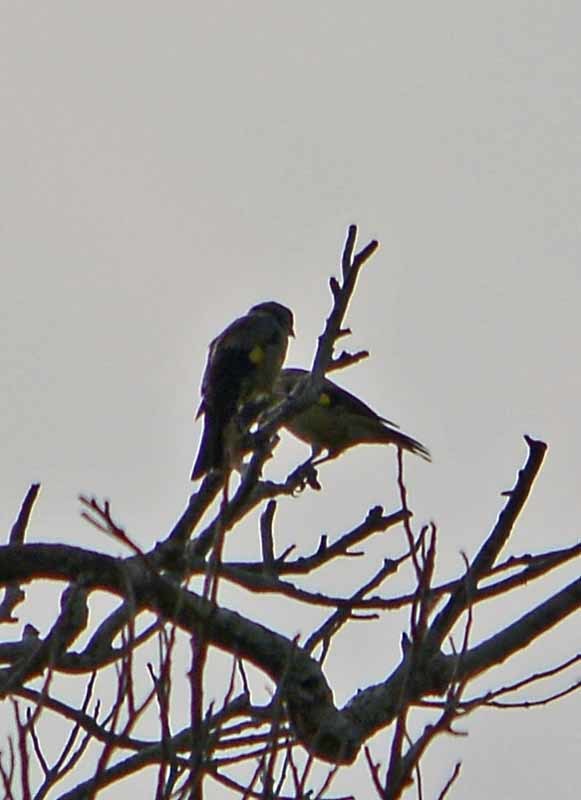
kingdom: Animalia
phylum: Chordata
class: Aves
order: Passeriformes
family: Thraupidae
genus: Thraupis
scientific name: Thraupis abbas
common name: Yellow-winged tanager
